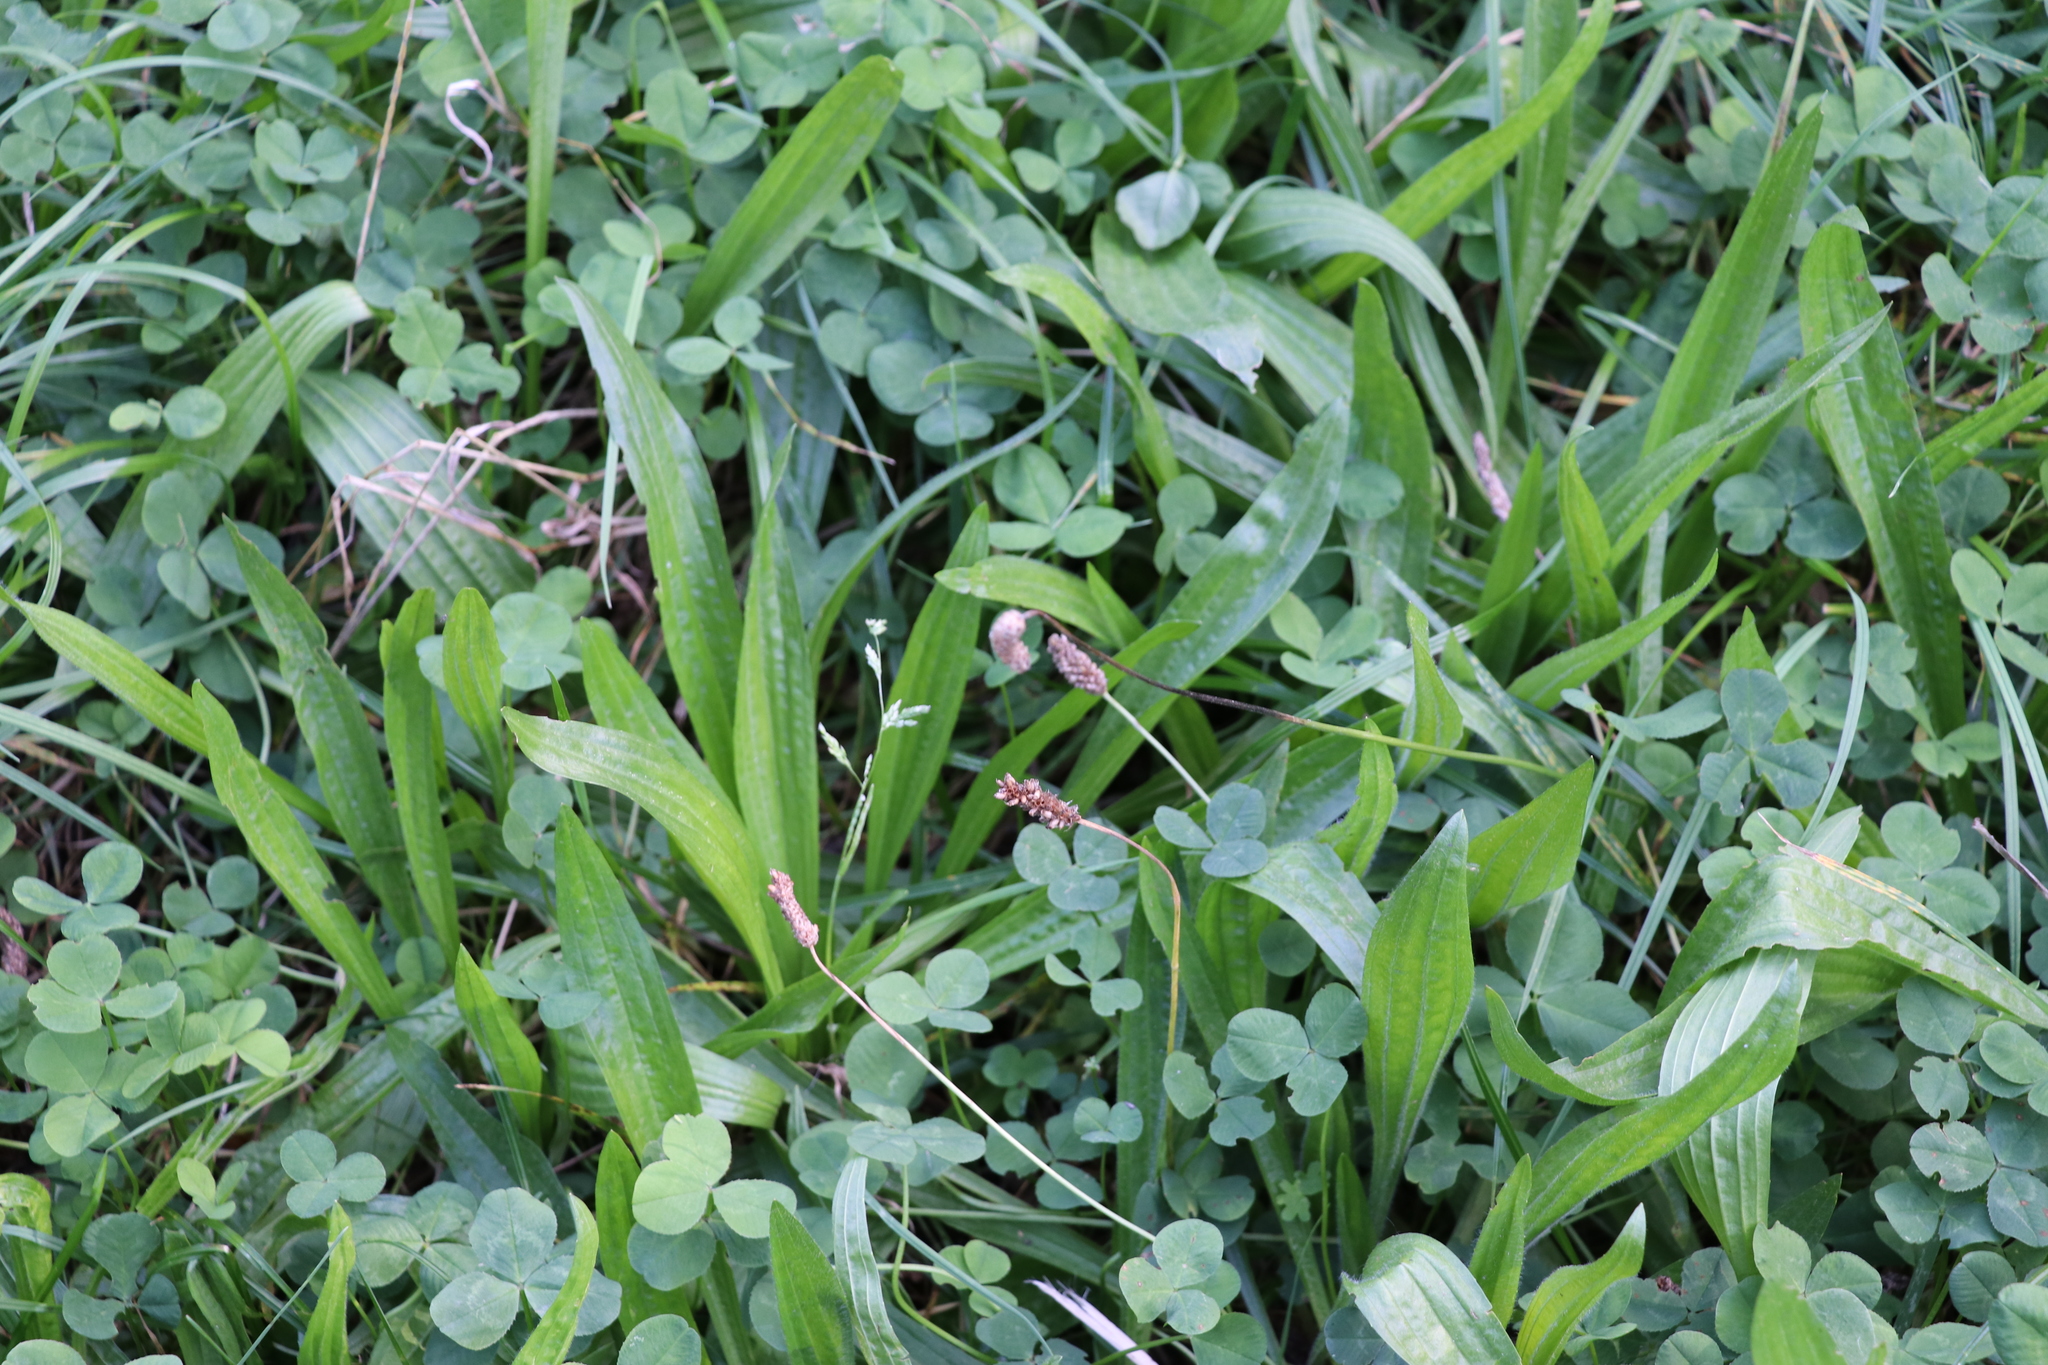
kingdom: Plantae
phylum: Tracheophyta
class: Magnoliopsida
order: Lamiales
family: Plantaginaceae
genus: Plantago
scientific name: Plantago lanceolata
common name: Ribwort plantain
